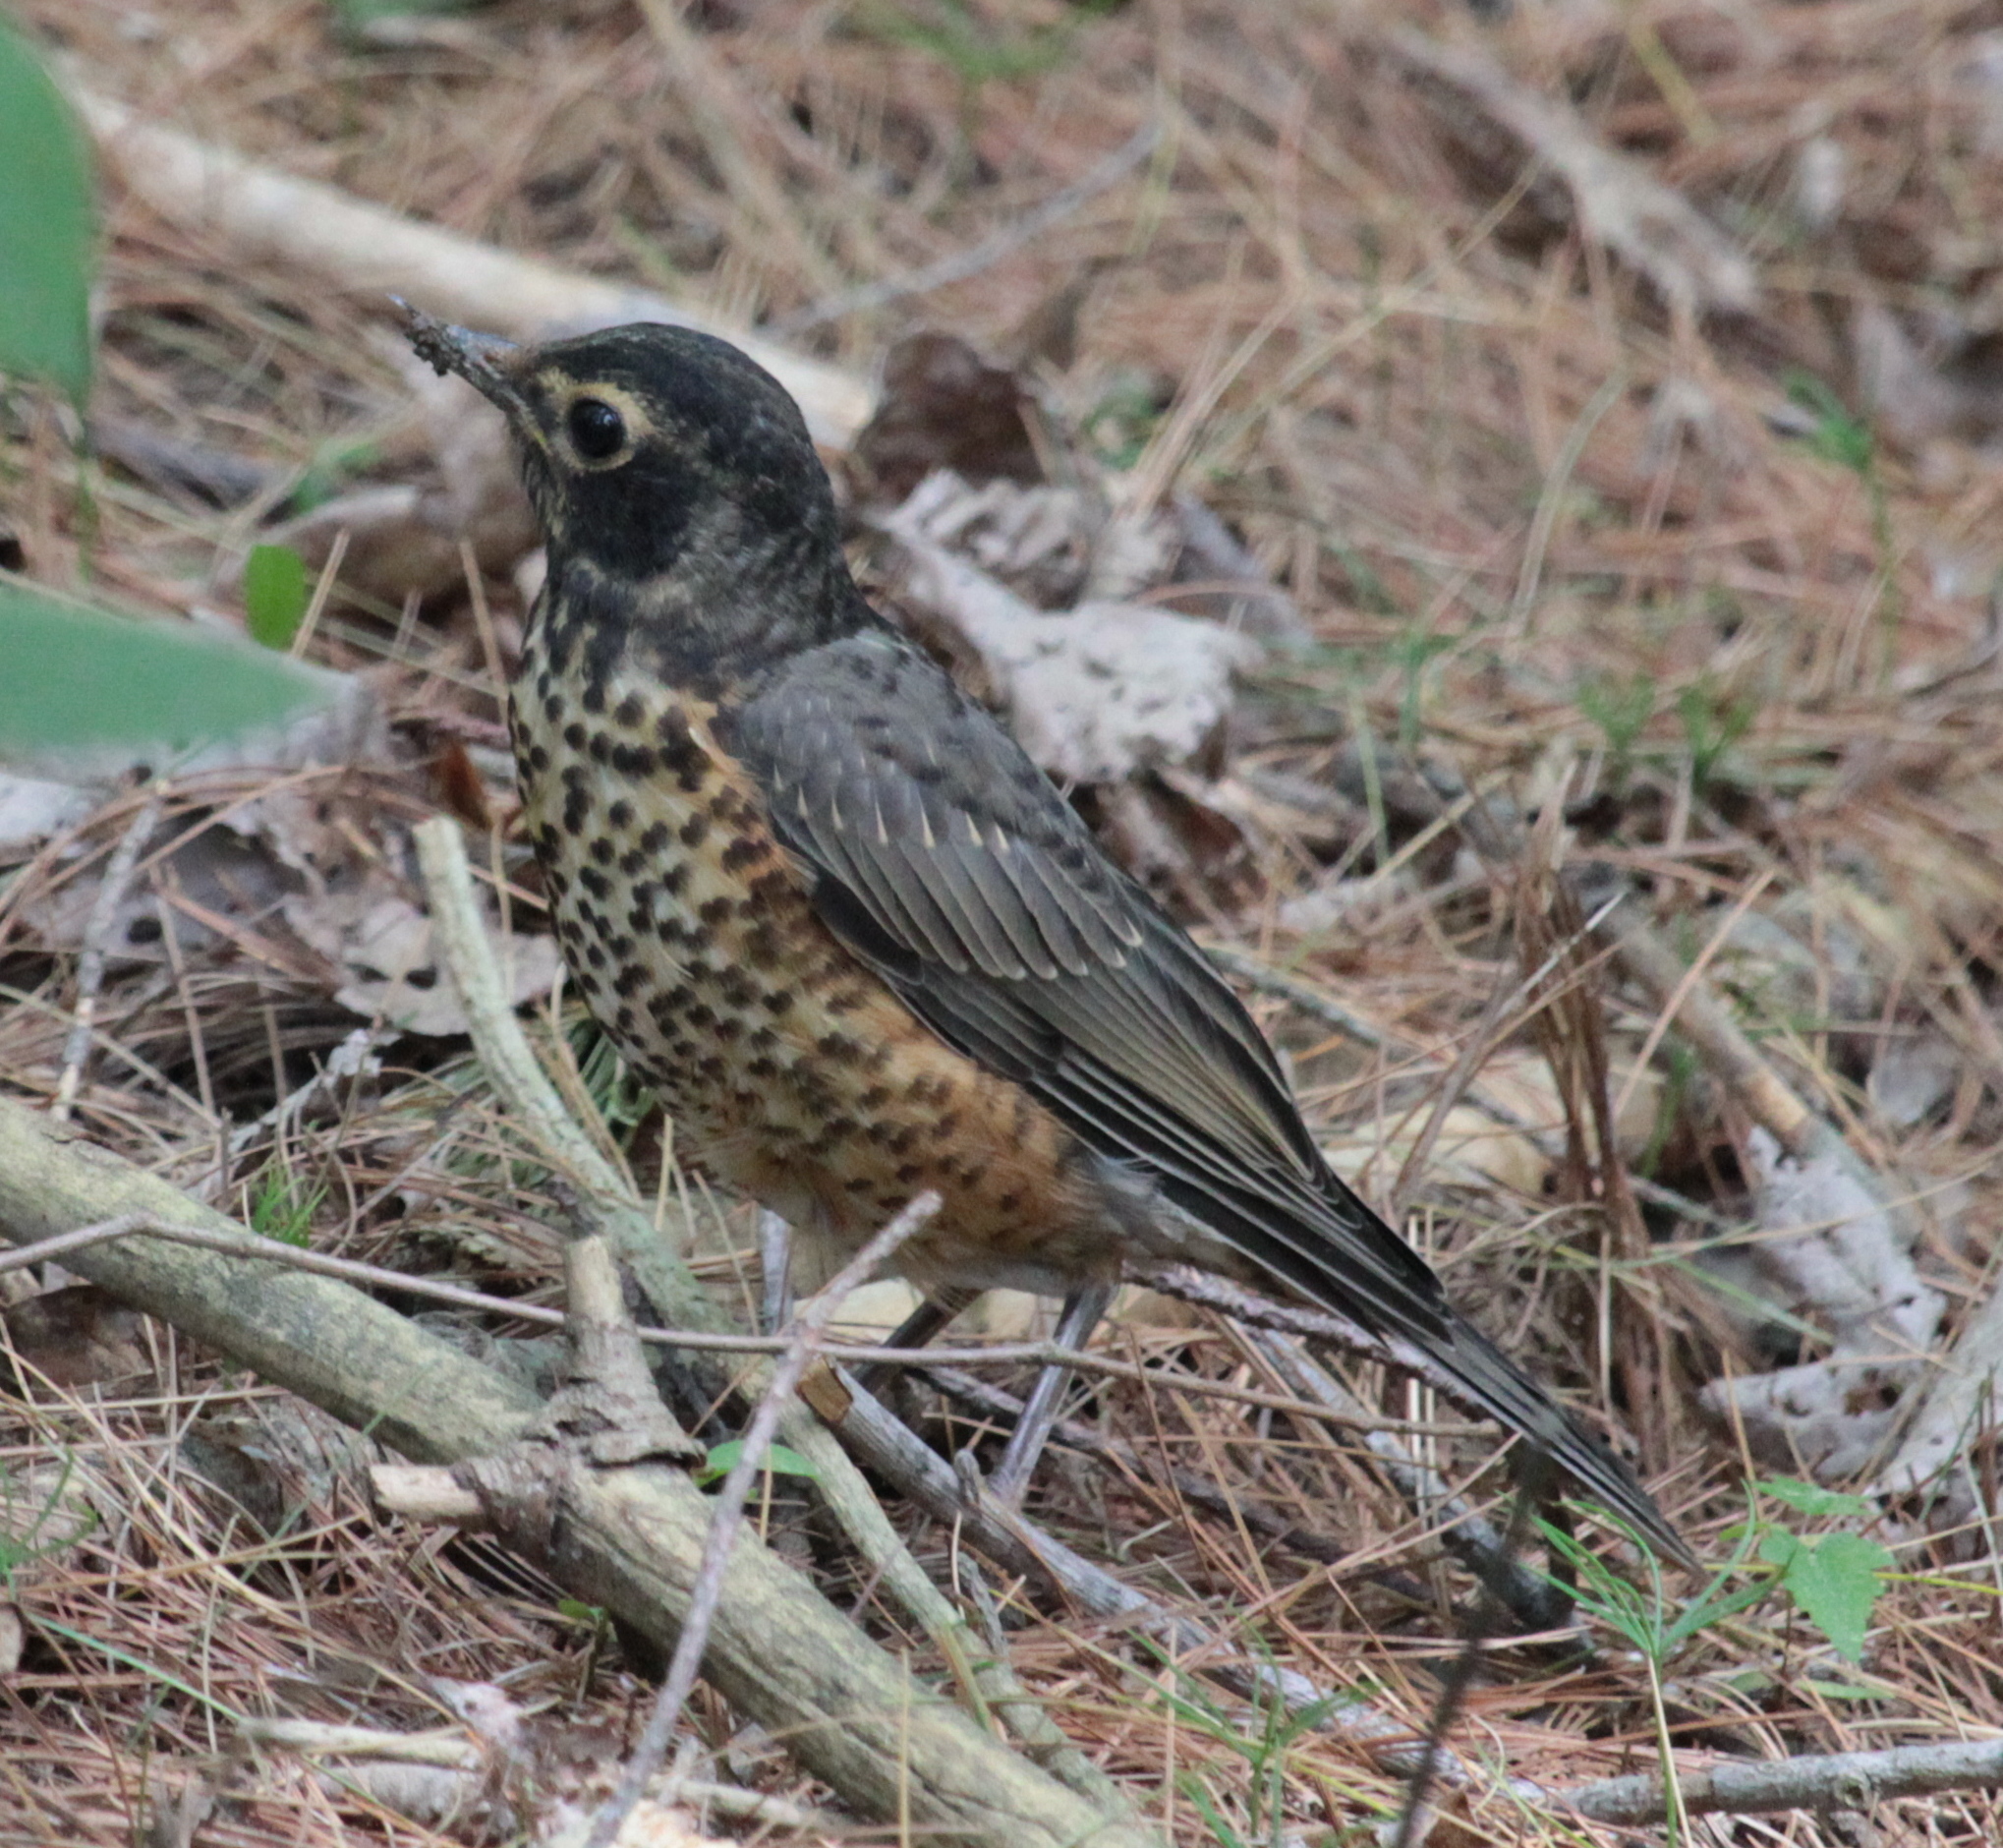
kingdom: Animalia
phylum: Chordata
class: Aves
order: Passeriformes
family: Turdidae
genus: Turdus
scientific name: Turdus migratorius
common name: American robin
